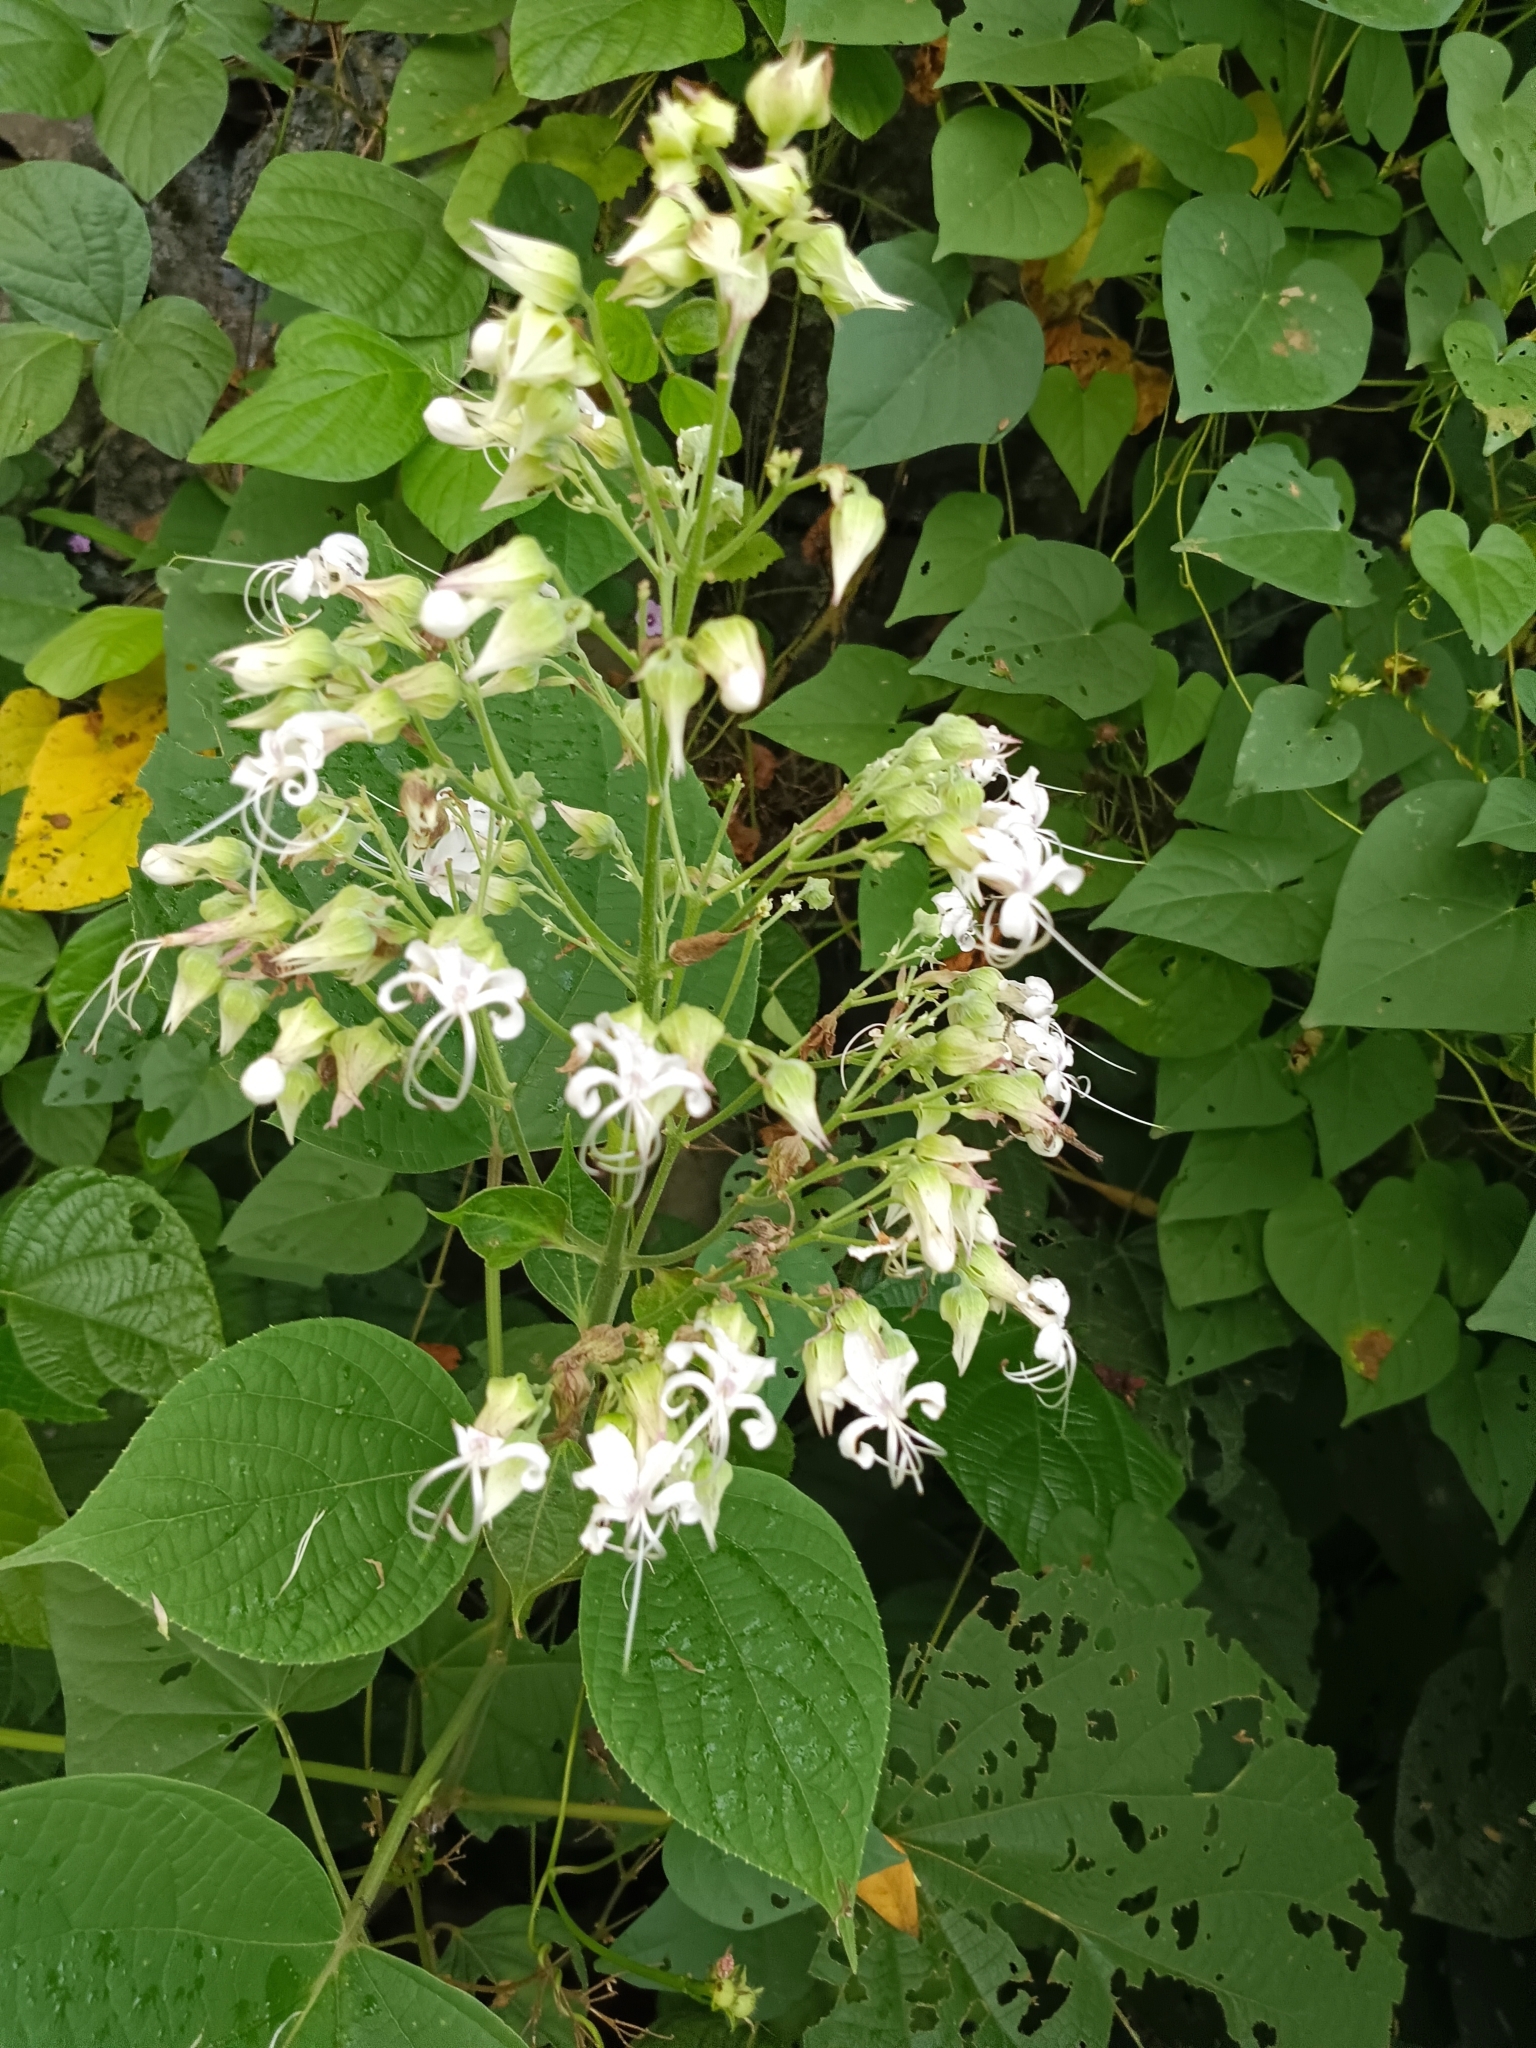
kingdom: Plantae
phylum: Tracheophyta
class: Magnoliopsida
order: Lamiales
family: Lamiaceae
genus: Clerodendrum
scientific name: Clerodendrum infortunatum
